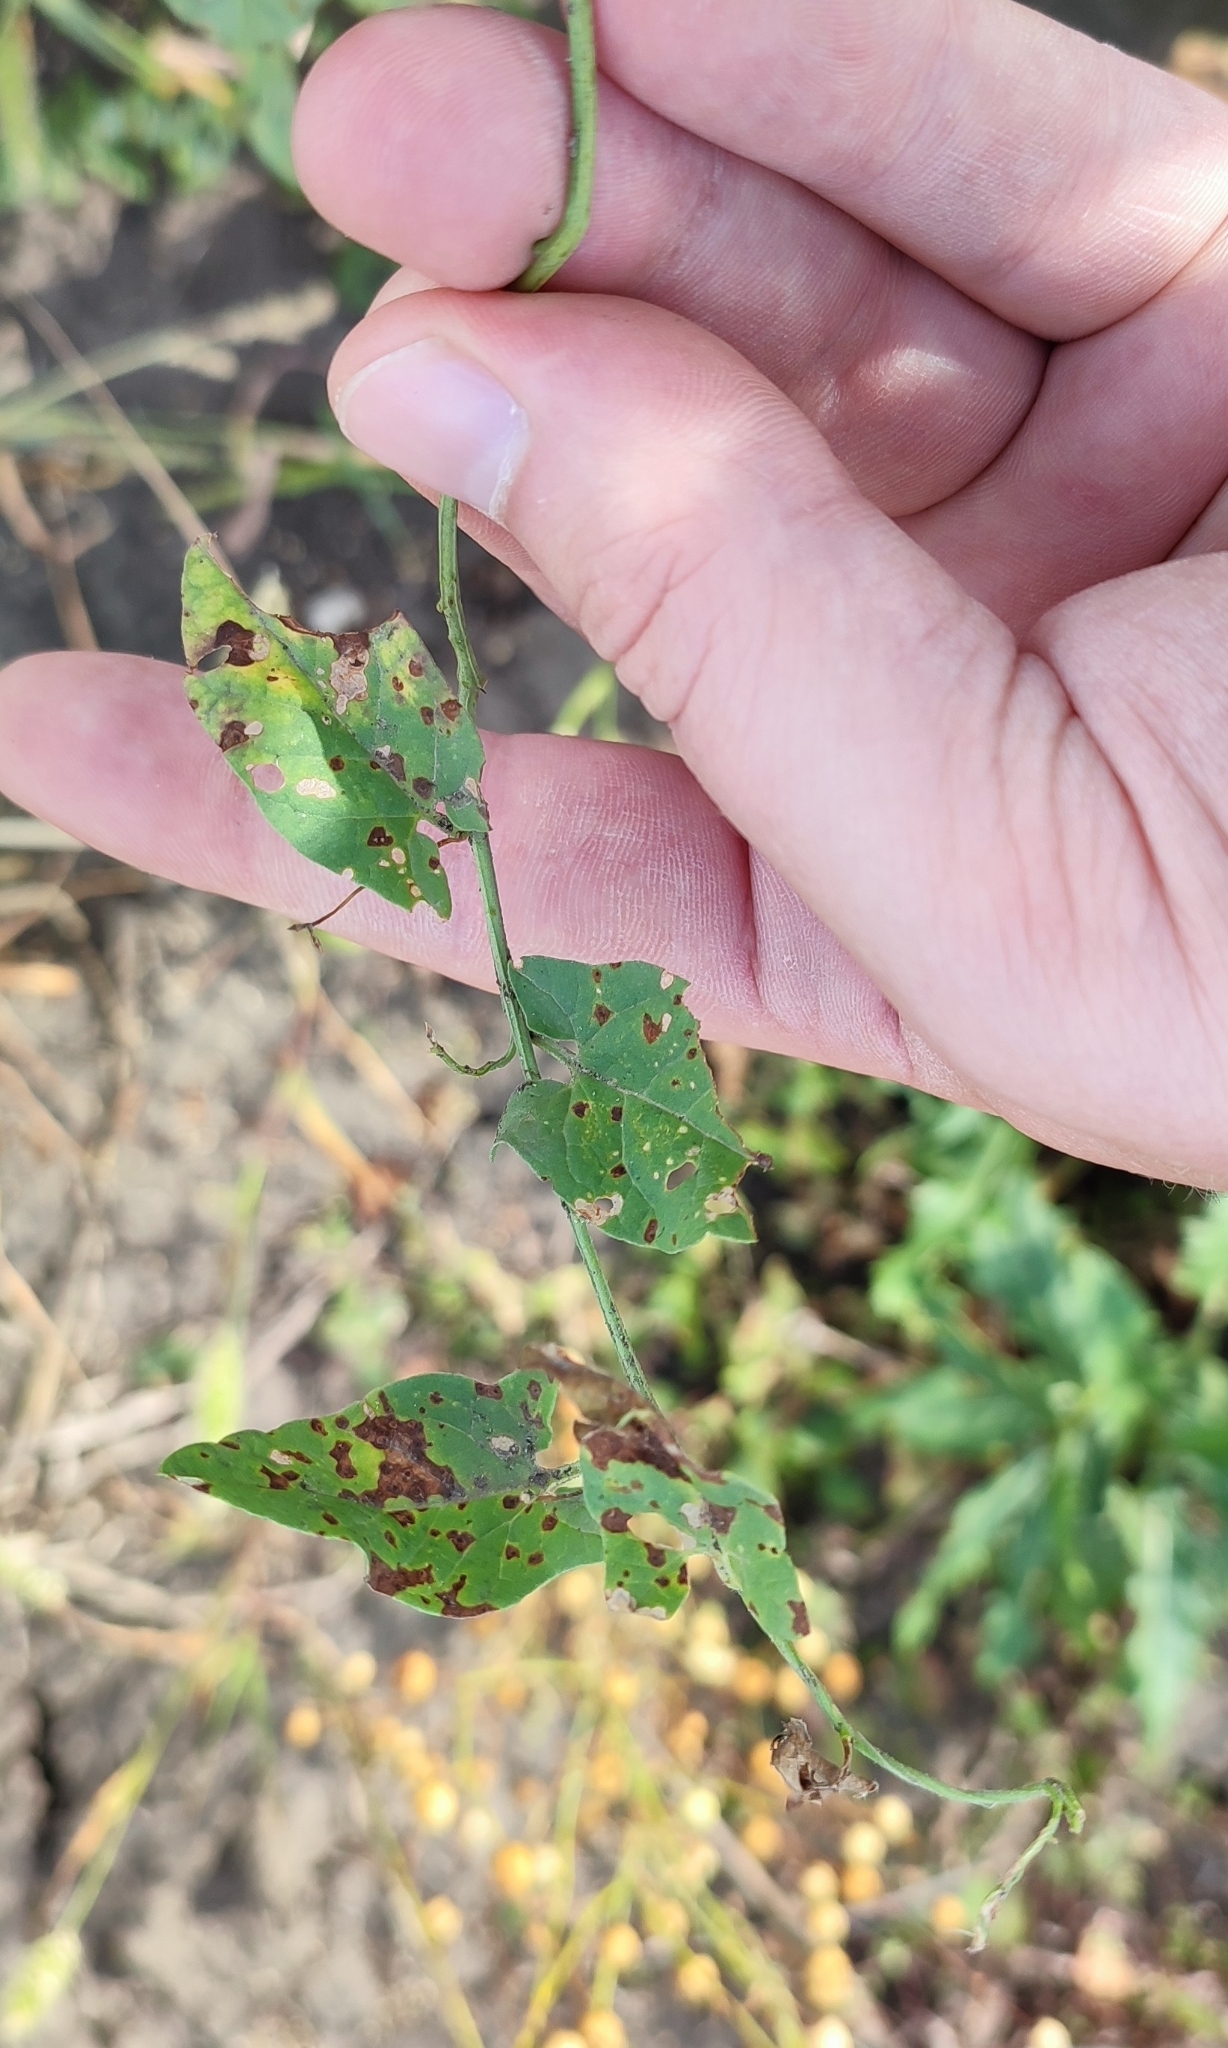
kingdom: Plantae
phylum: Tracheophyta
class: Magnoliopsida
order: Solanales
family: Convolvulaceae
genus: Convolvulus
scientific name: Convolvulus arvensis
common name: Field bindweed
